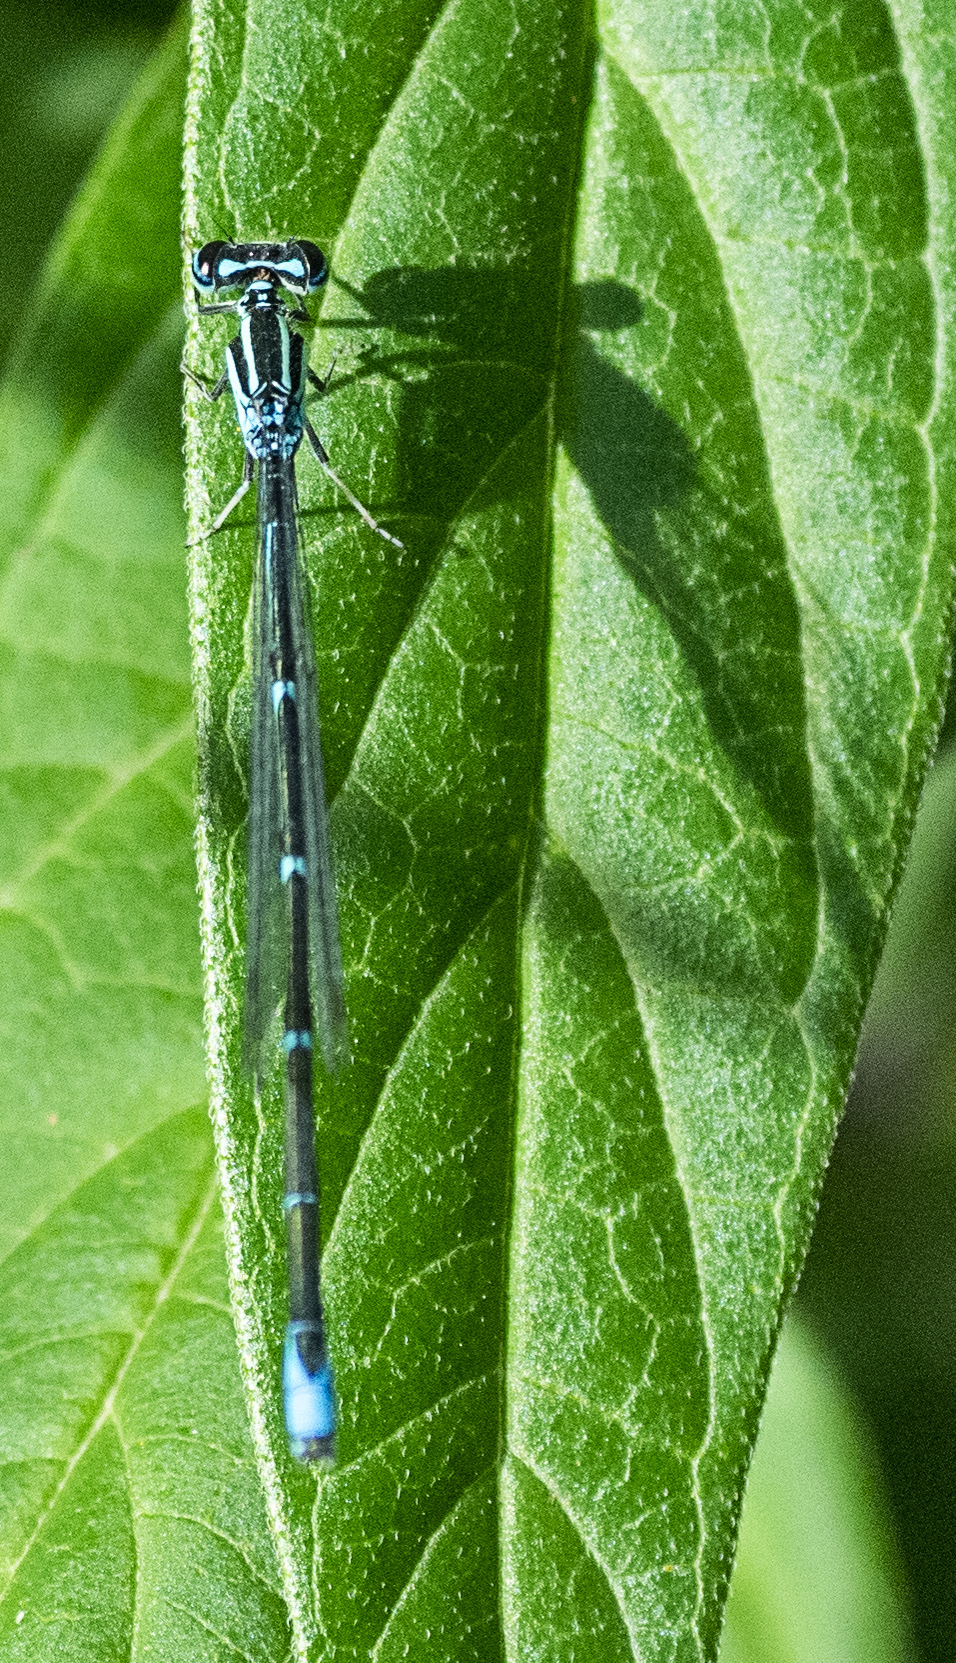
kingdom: Animalia
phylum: Arthropoda
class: Insecta
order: Odonata
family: Coenagrionidae
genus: Enallagma
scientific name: Enallagma exsulans
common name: Stream bluet
